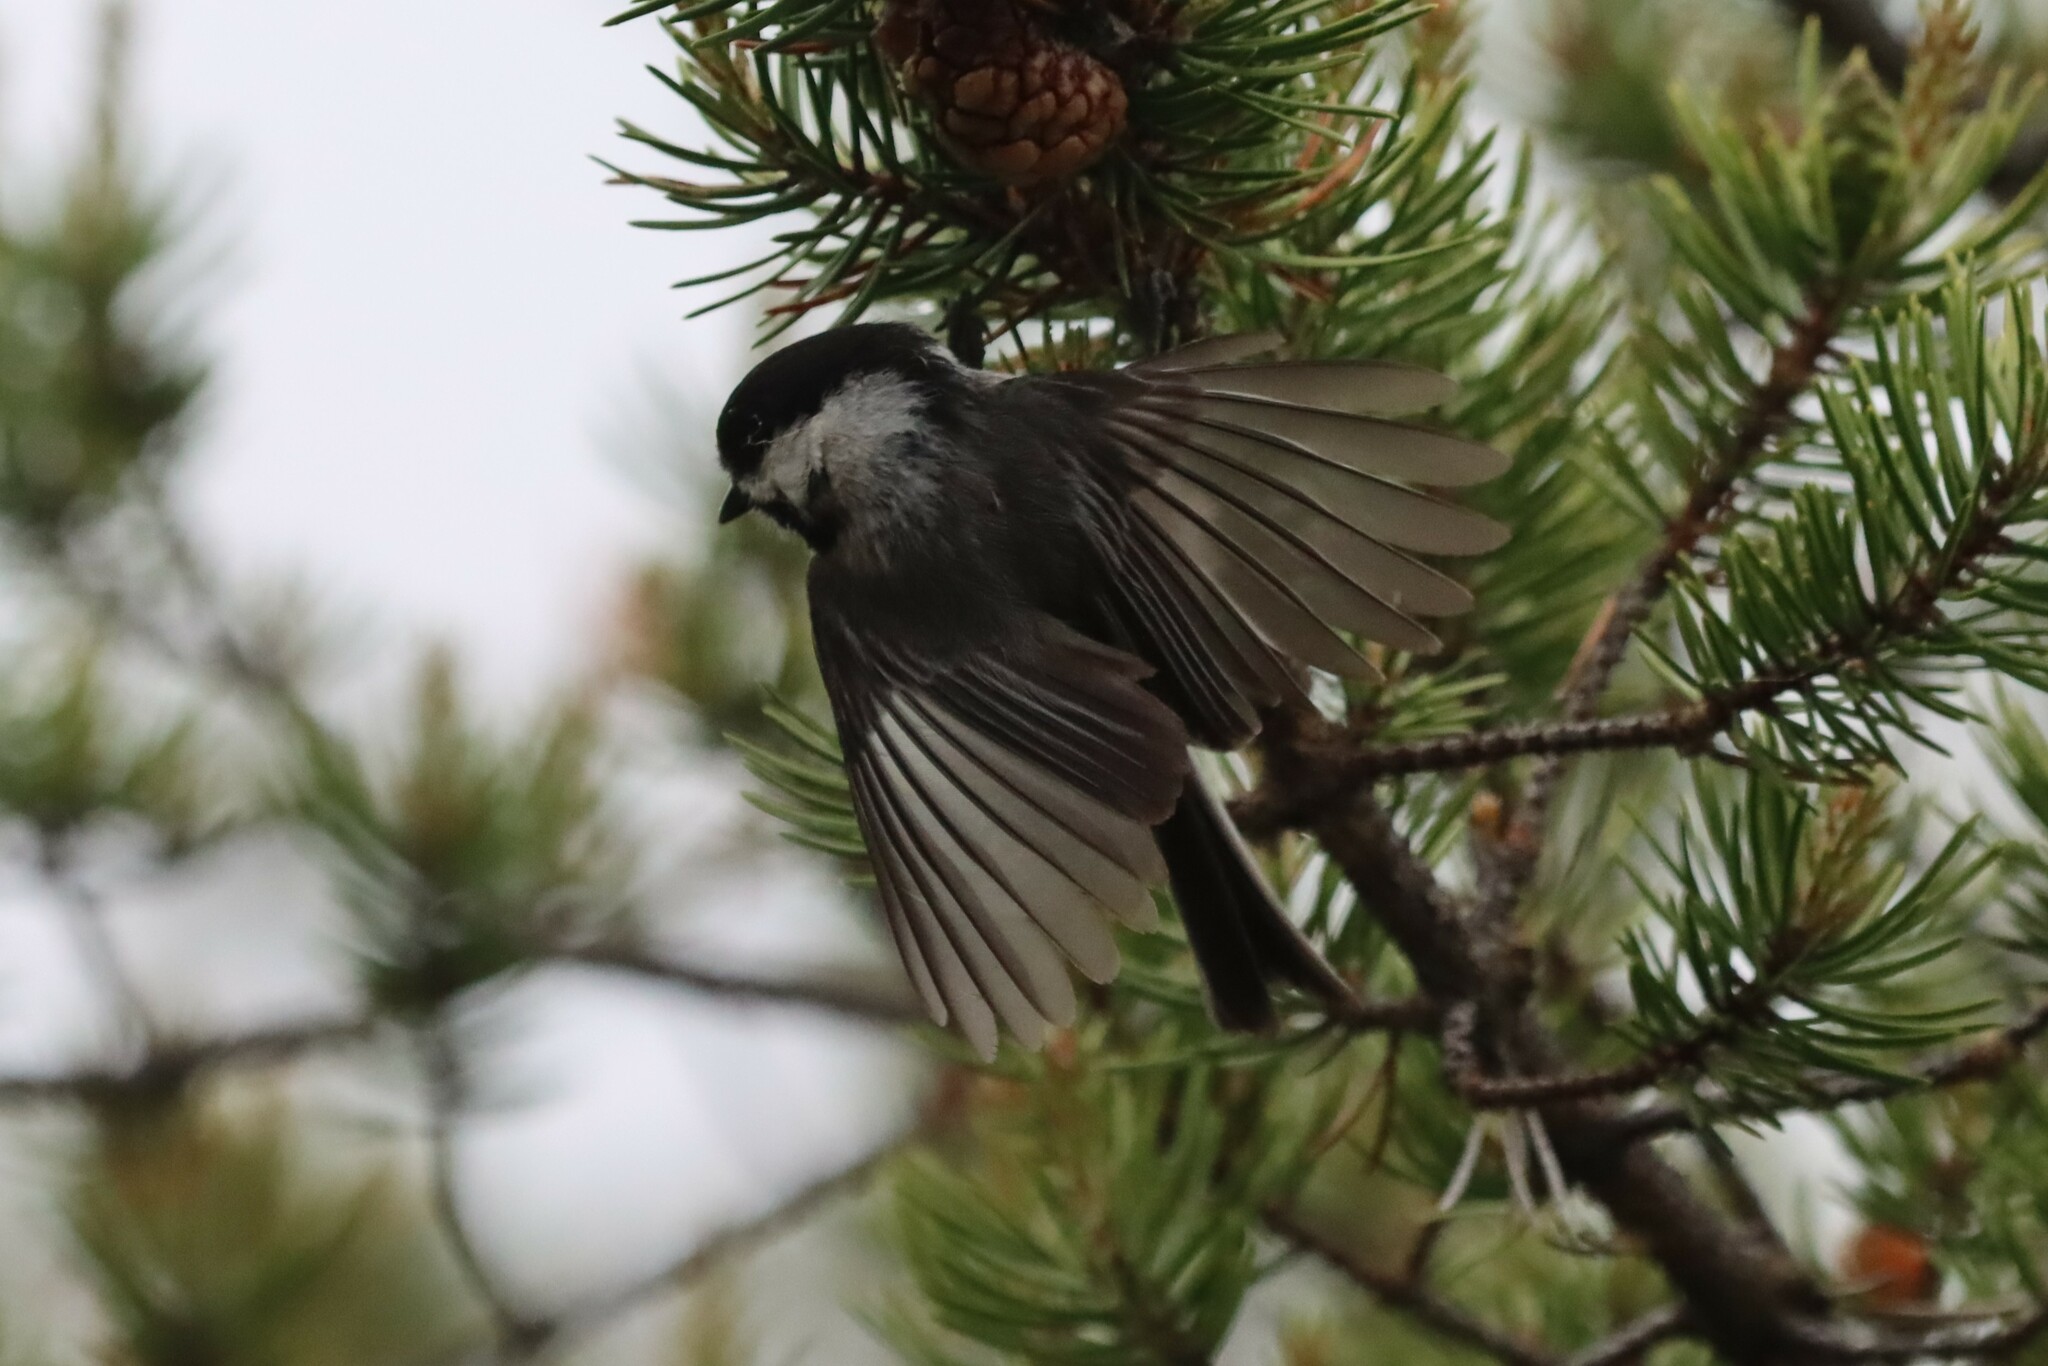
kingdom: Animalia
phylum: Chordata
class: Aves
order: Passeriformes
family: Paridae
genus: Poecile
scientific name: Poecile atricapillus
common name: Black-capped chickadee
